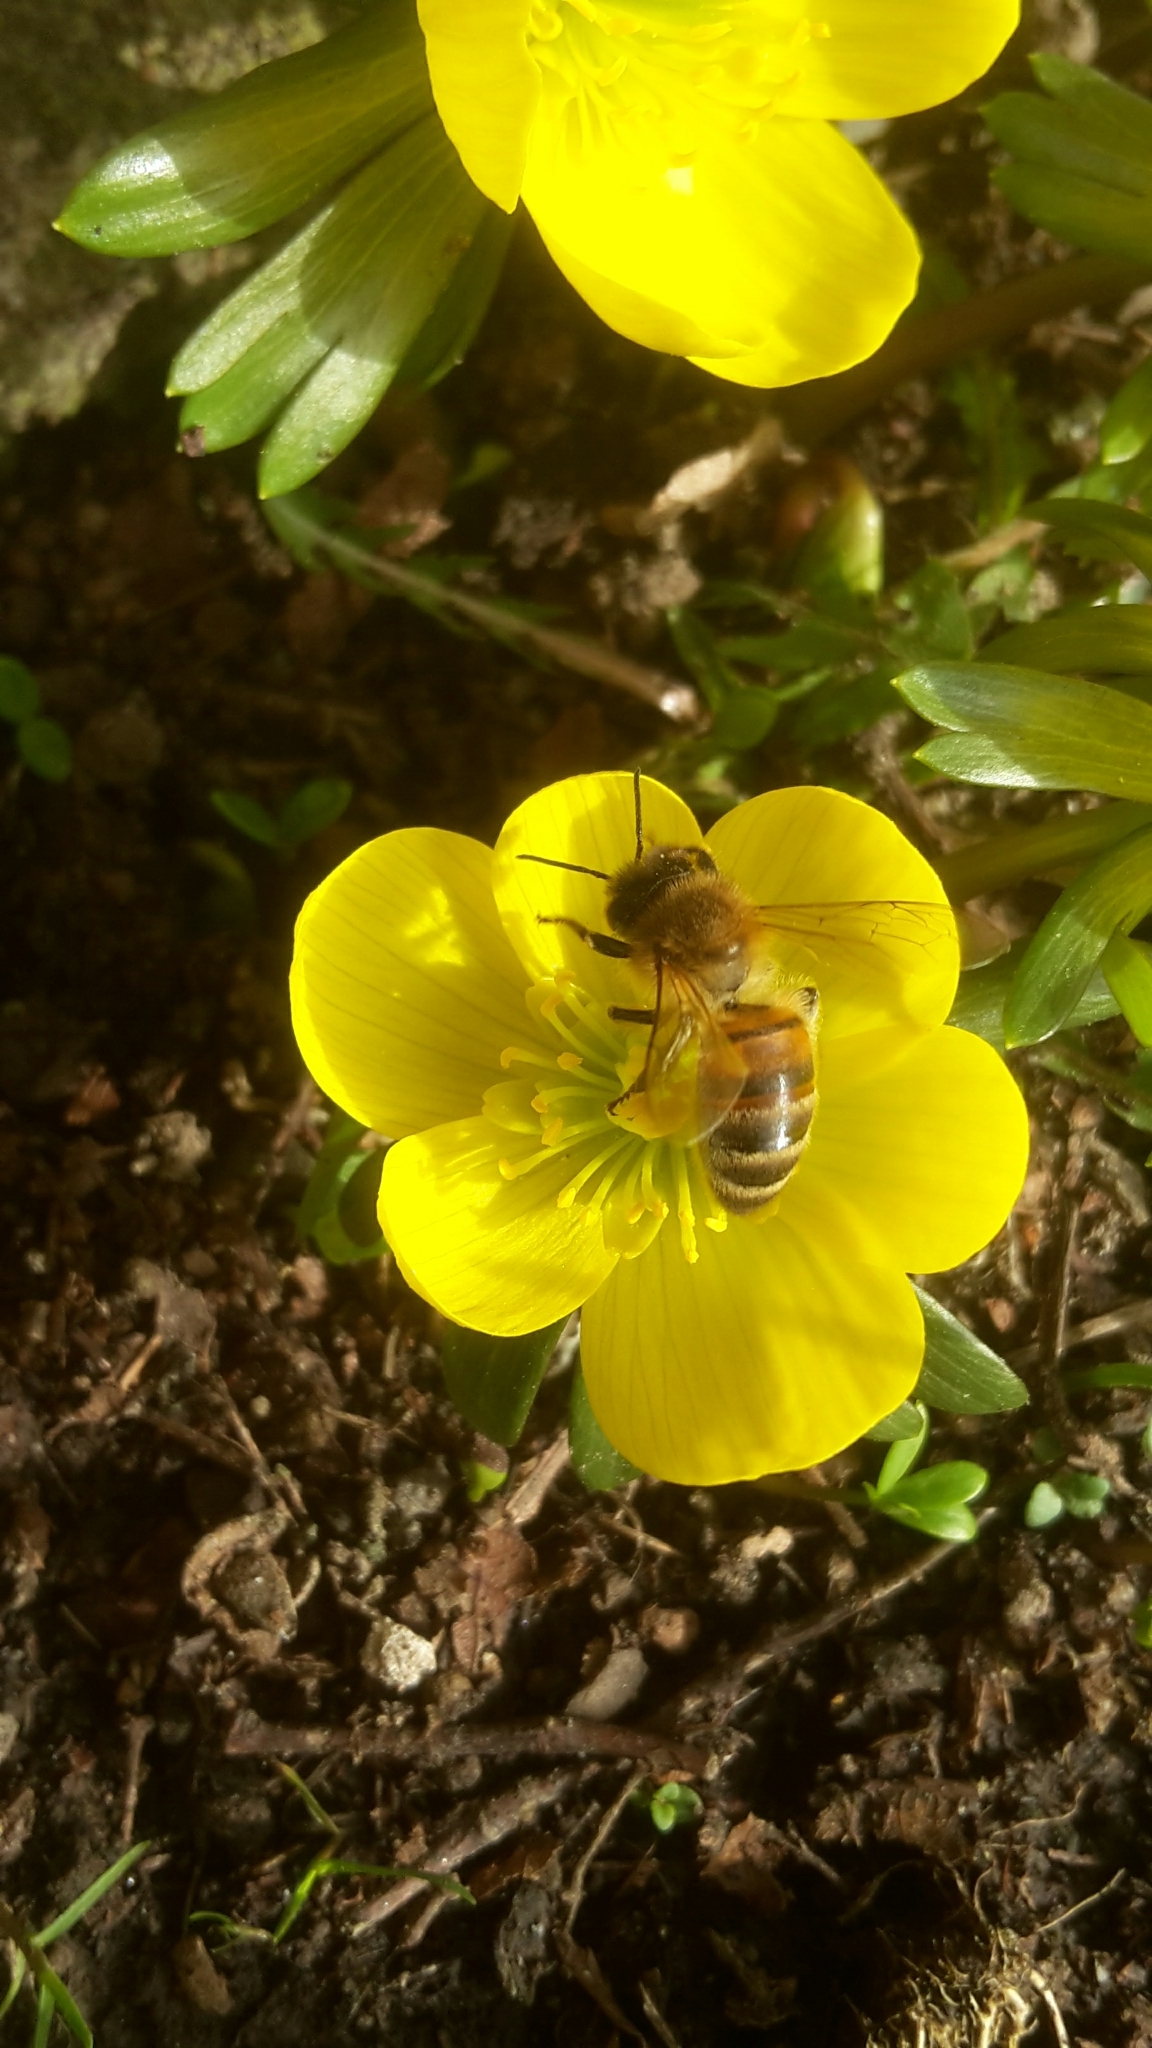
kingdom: Animalia
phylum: Arthropoda
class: Insecta
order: Hymenoptera
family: Apidae
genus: Apis
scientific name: Apis mellifera
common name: Honey bee
